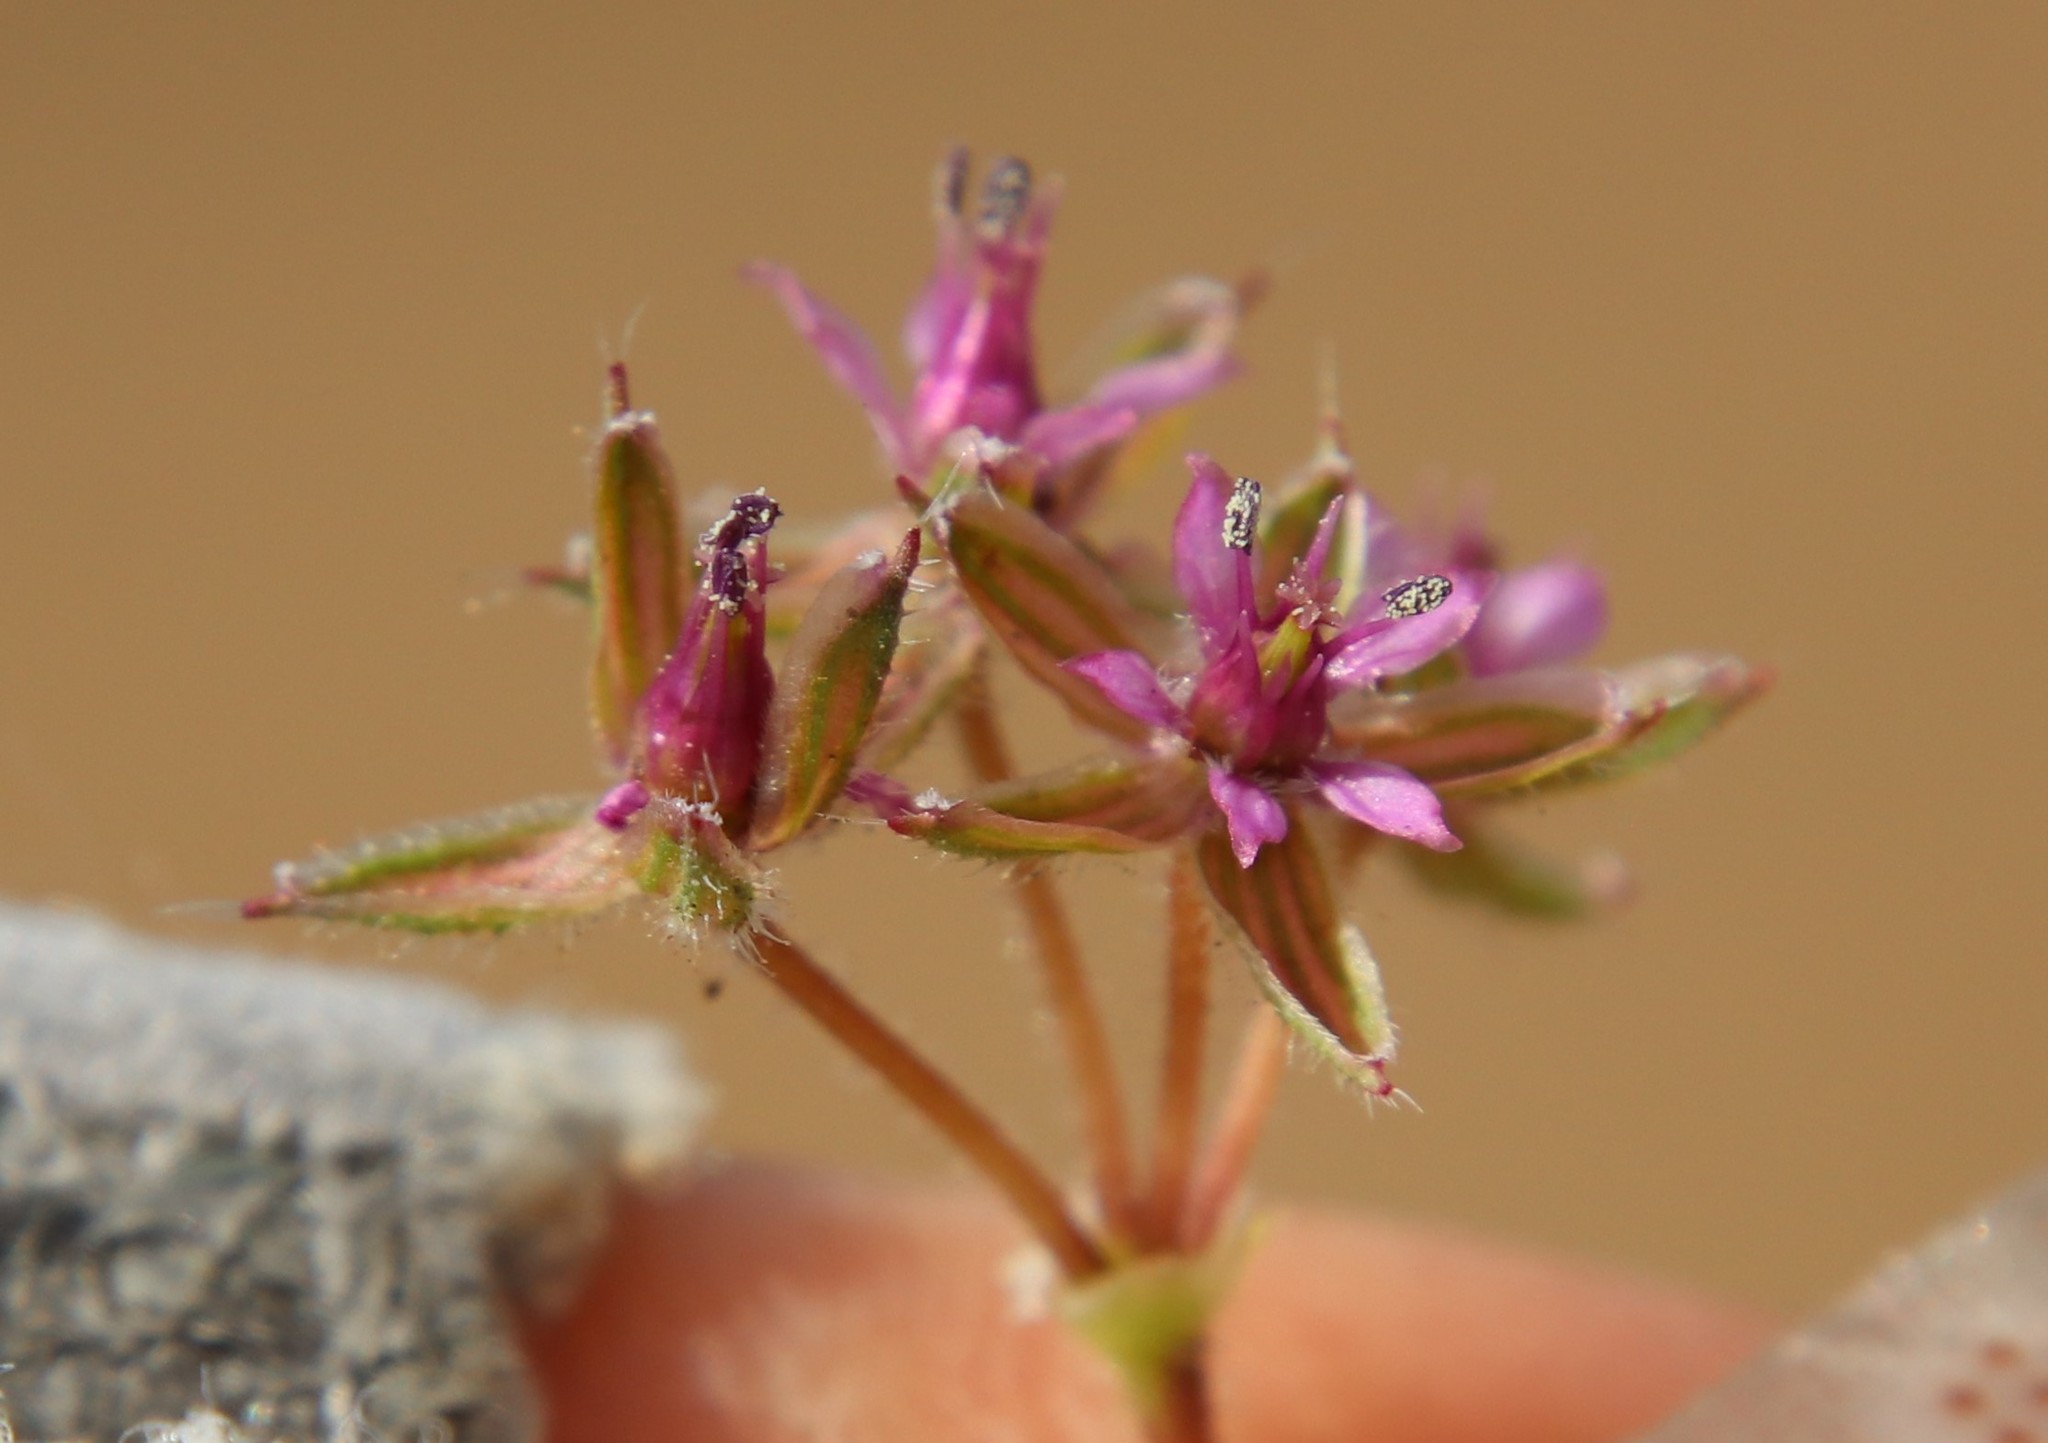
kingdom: Plantae
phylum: Tracheophyta
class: Magnoliopsida
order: Geraniales
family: Geraniaceae
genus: Erodium
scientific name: Erodium cicutarium
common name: Common stork's-bill
